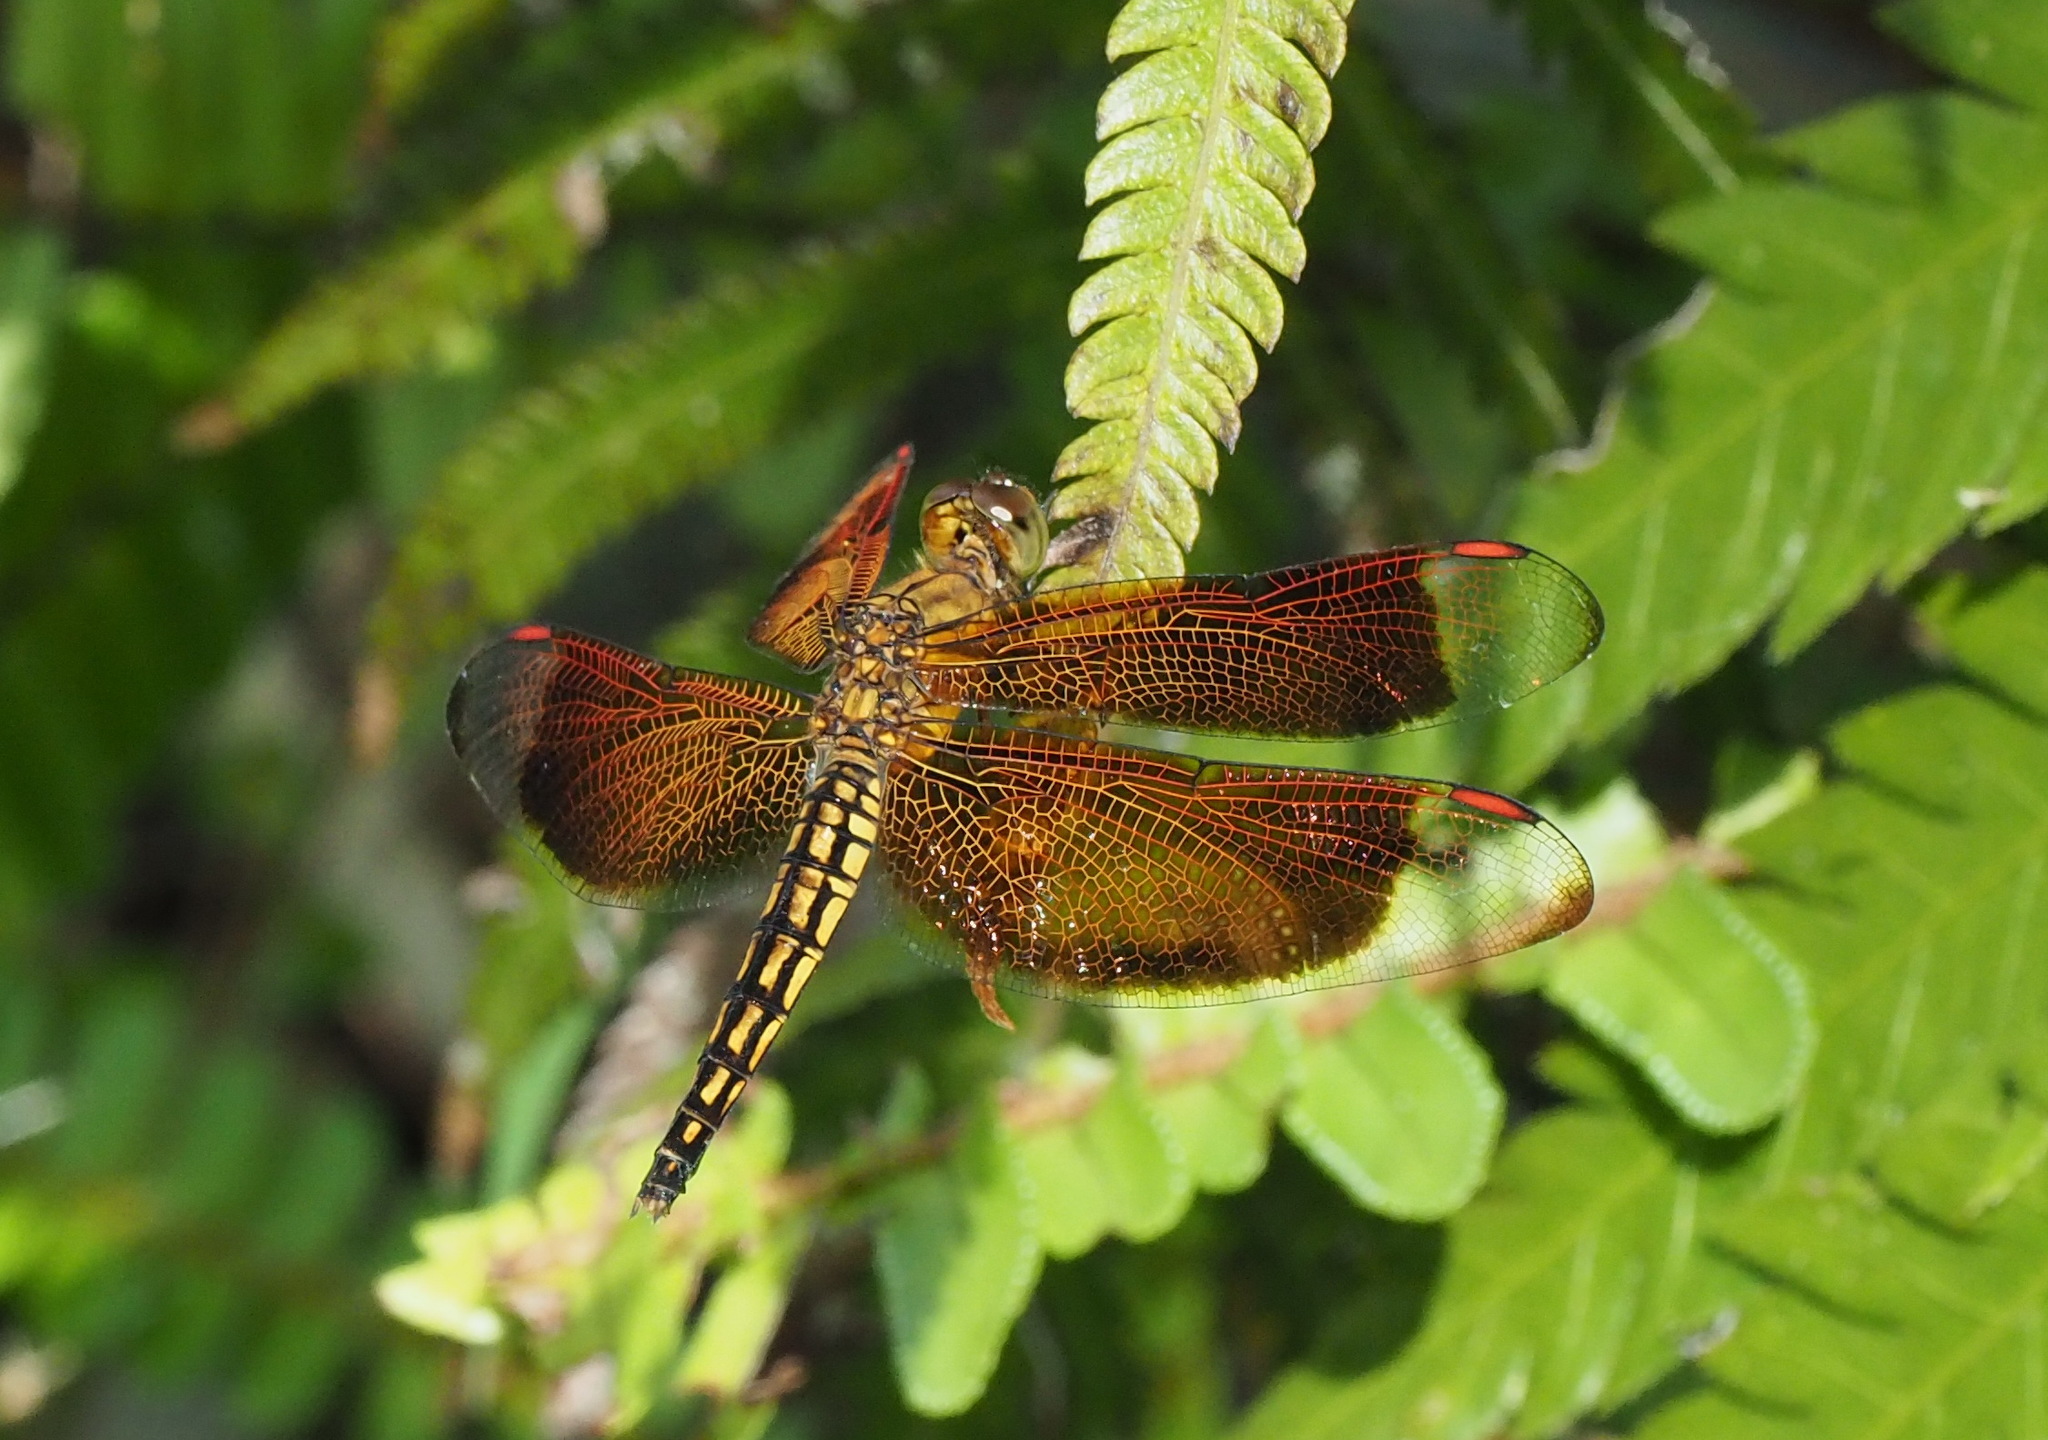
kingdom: Animalia
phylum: Arthropoda
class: Insecta
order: Odonata
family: Libellulidae
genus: Neurothemis
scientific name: Neurothemis taiwanensis
